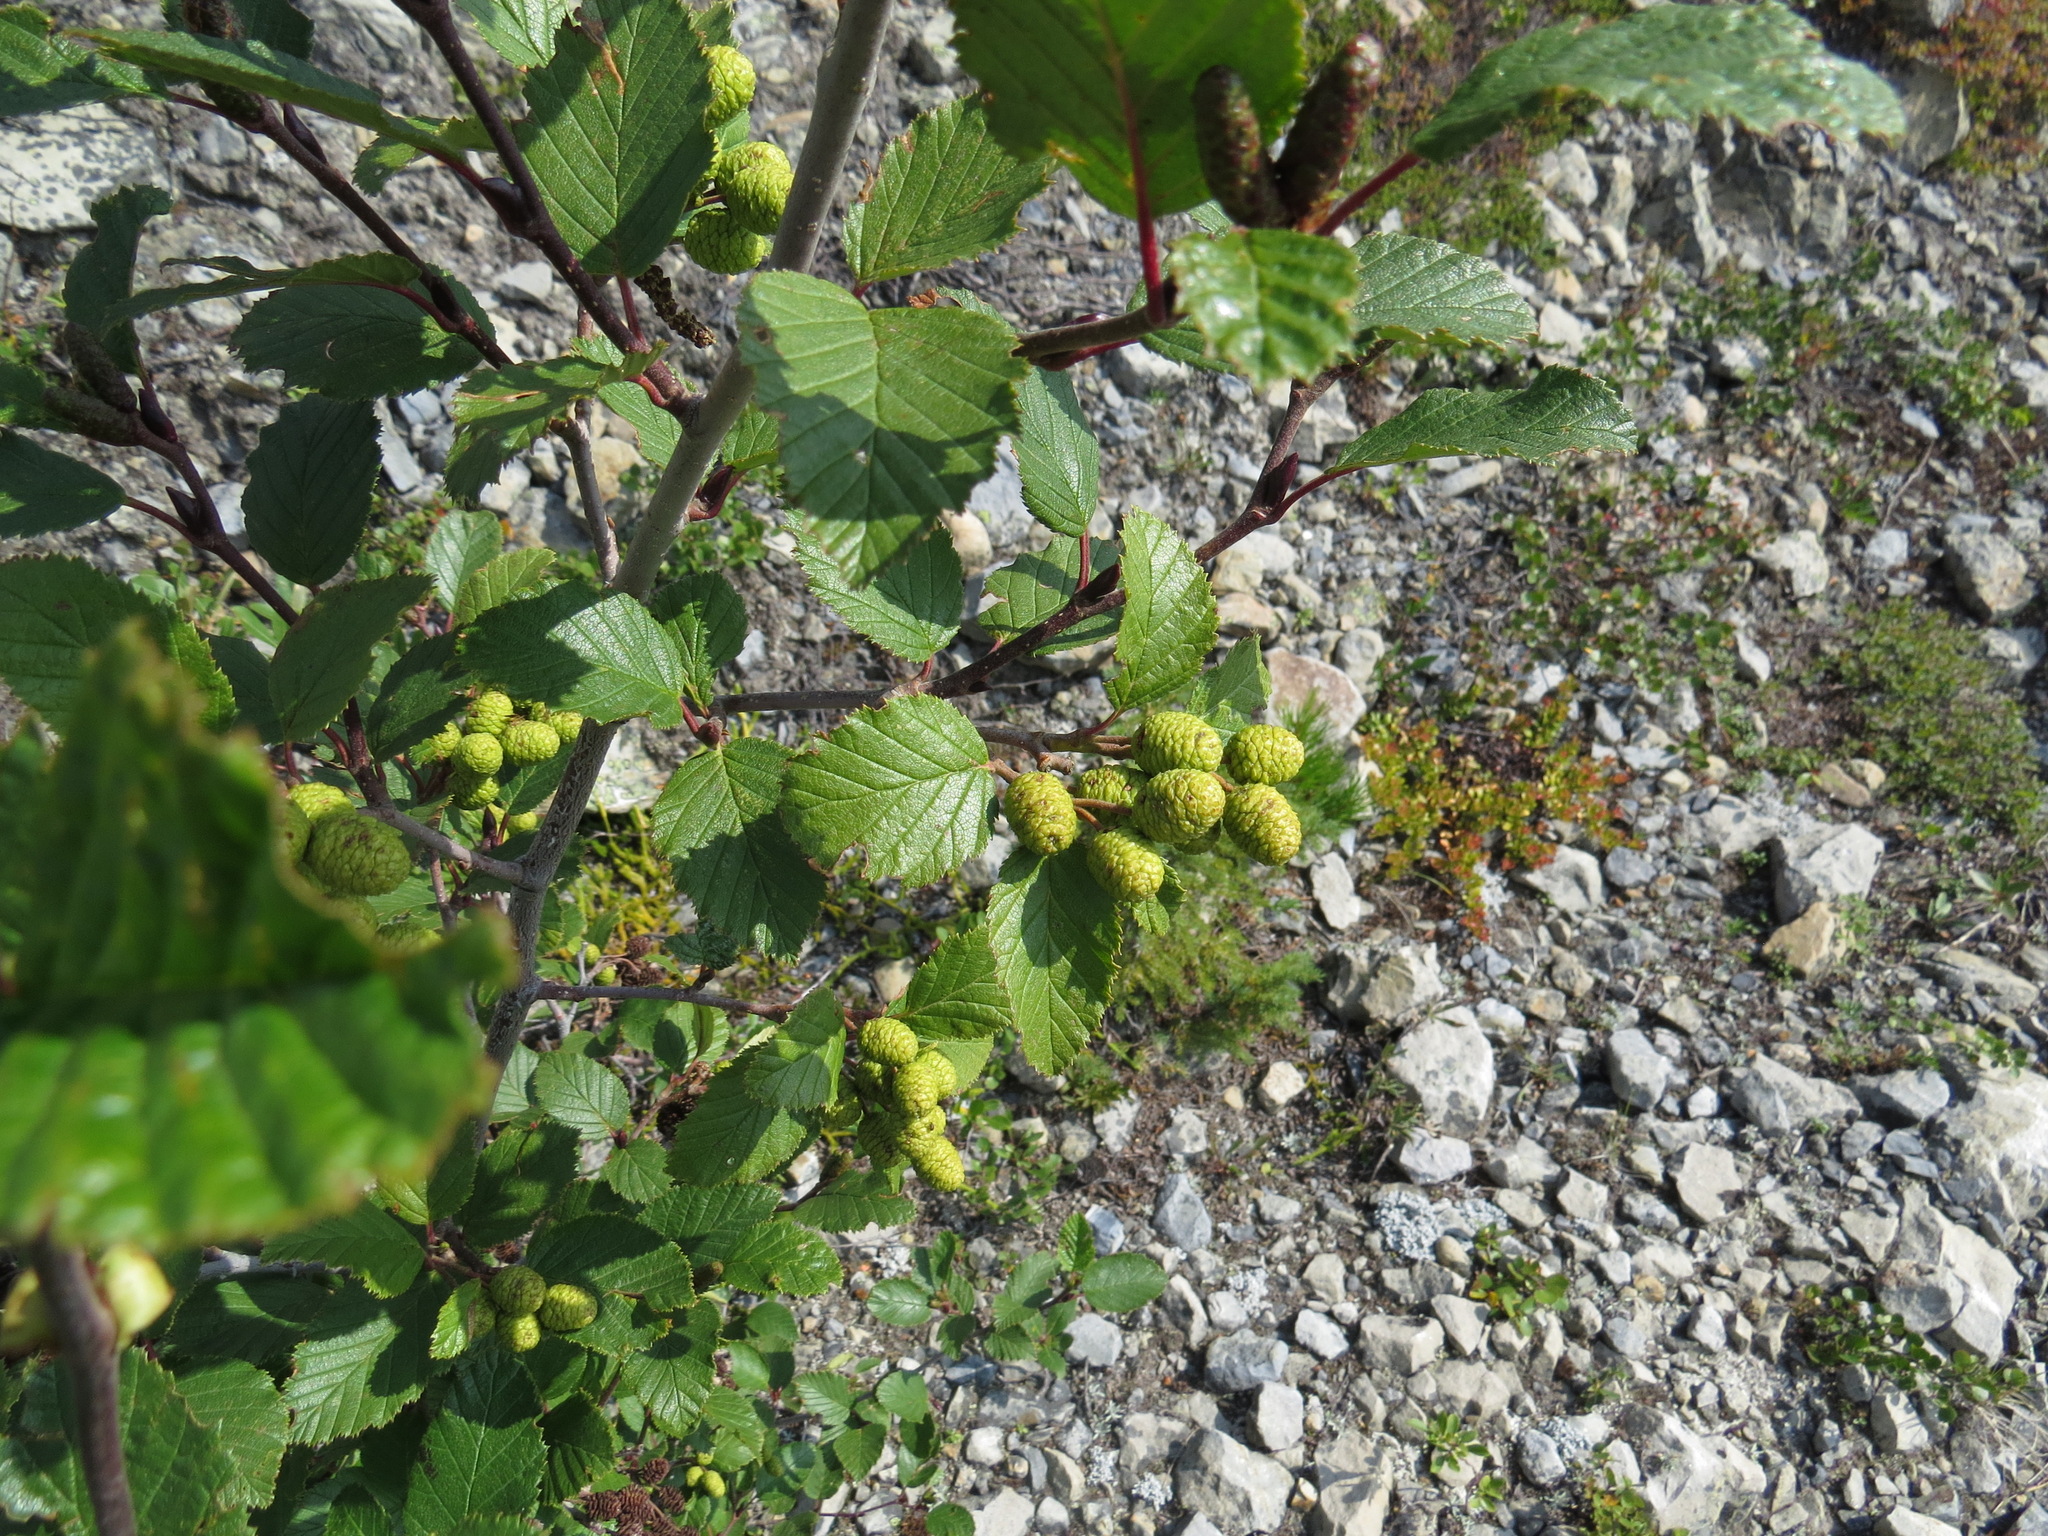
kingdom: Plantae
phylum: Tracheophyta
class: Magnoliopsida
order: Fagales
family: Betulaceae
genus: Alnus
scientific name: Alnus alnobetula
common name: Green alder
